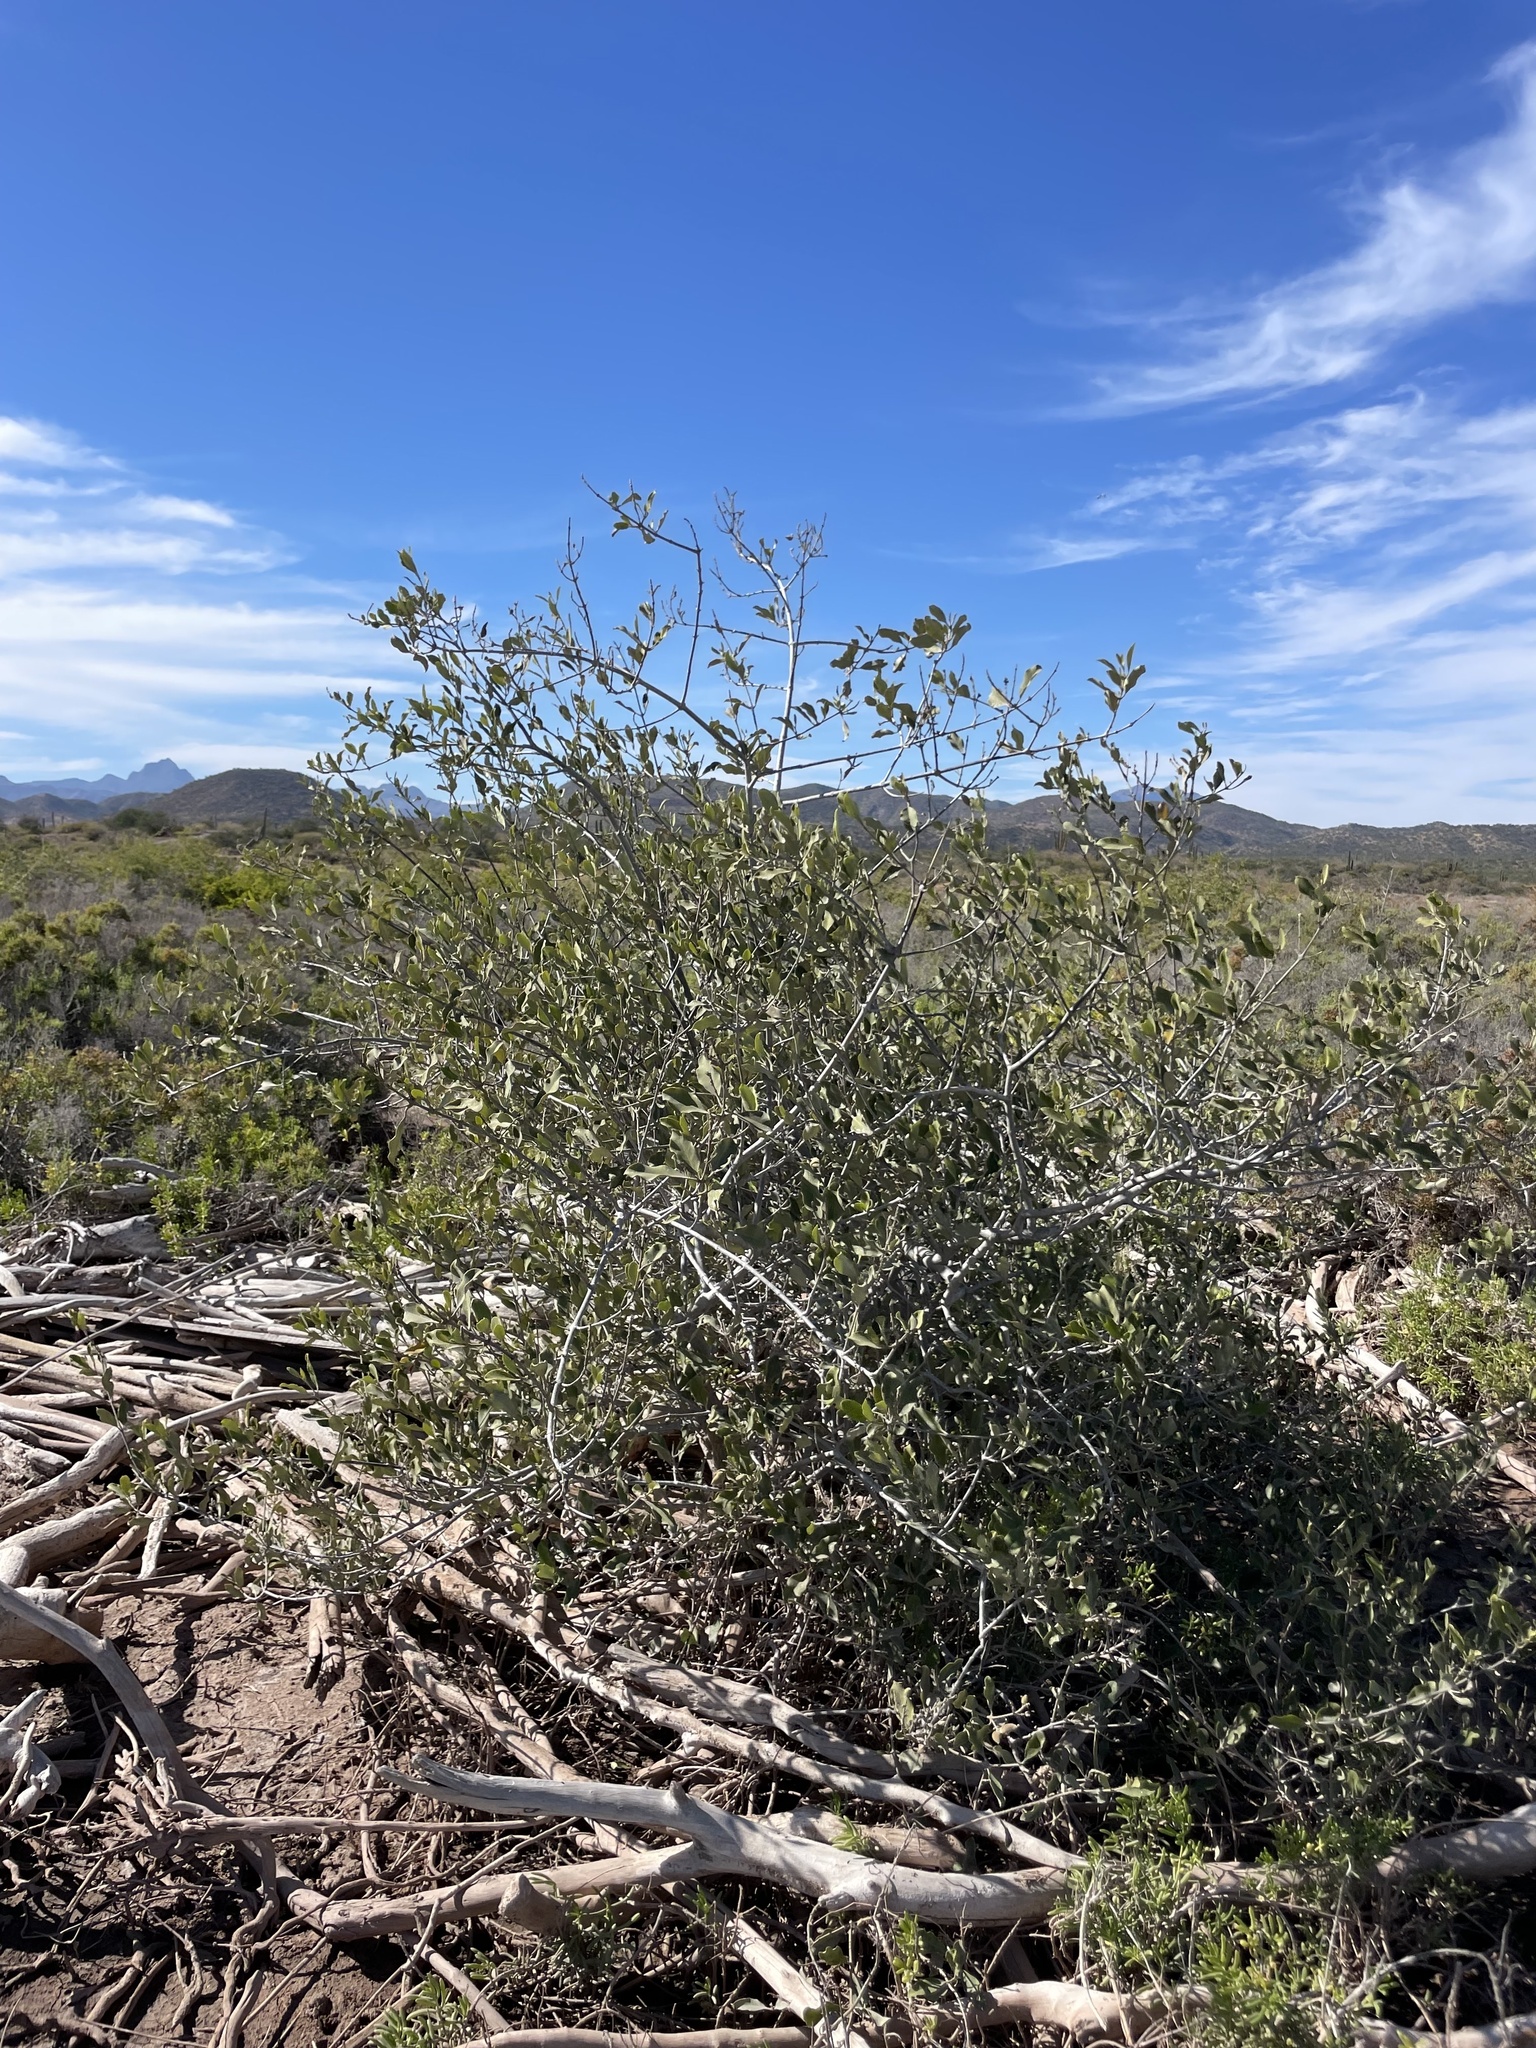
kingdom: Plantae
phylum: Tracheophyta
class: Magnoliopsida
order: Lamiales
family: Acanthaceae
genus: Avicennia
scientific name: Avicennia germinans
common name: Black mangrove
